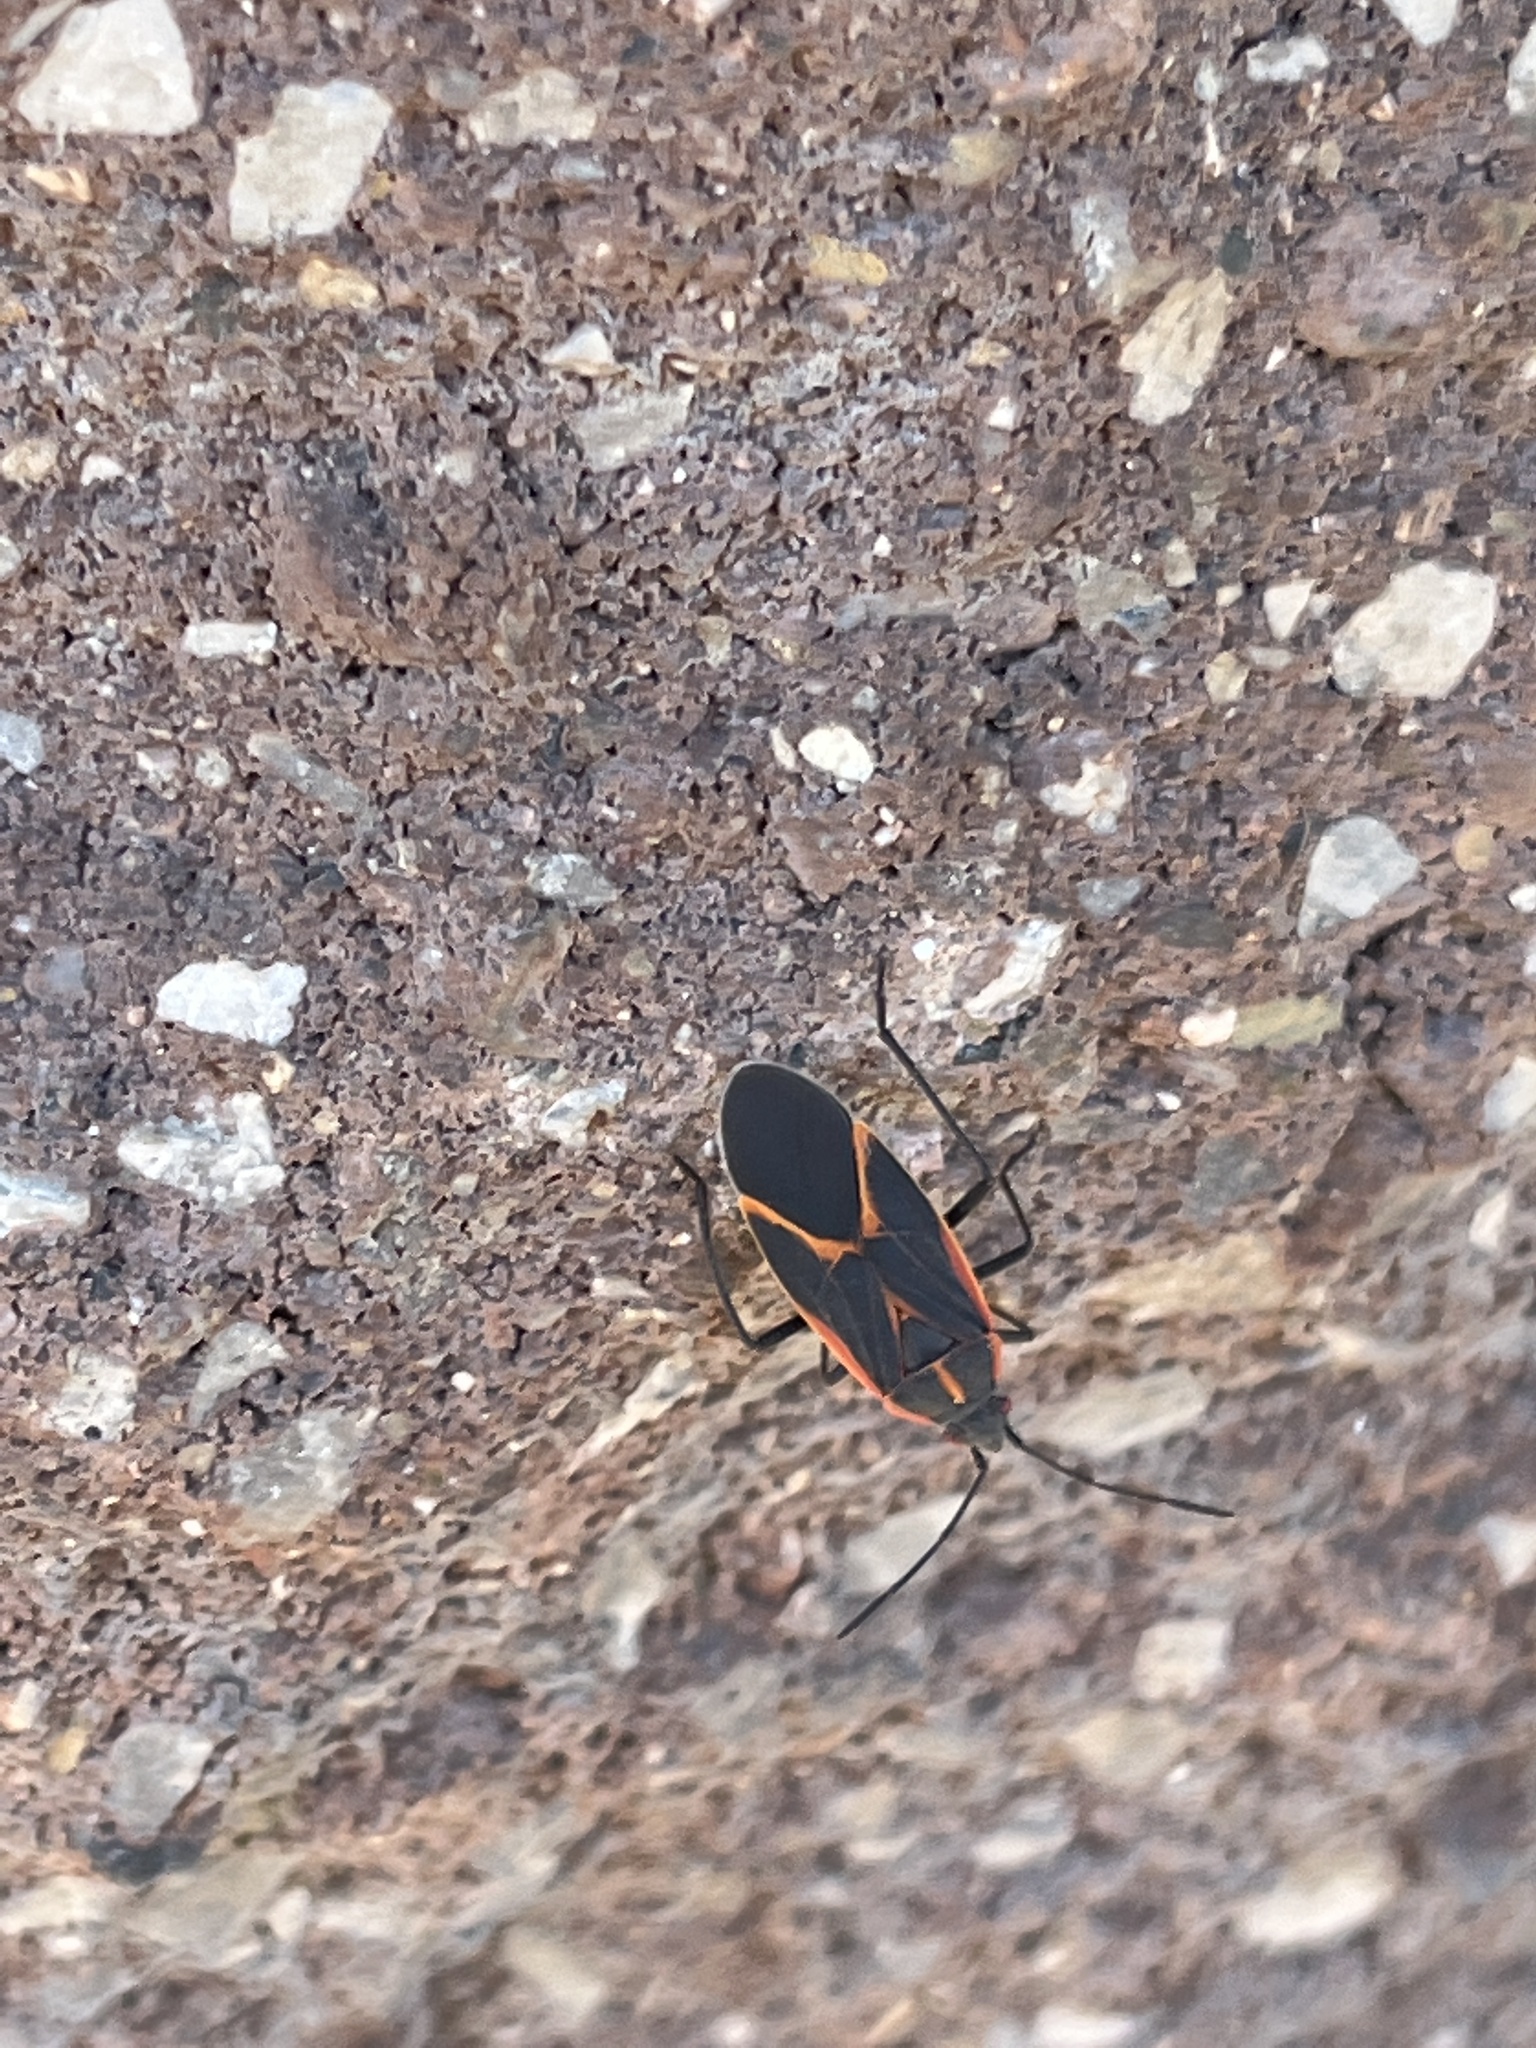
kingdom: Animalia
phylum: Arthropoda
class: Insecta
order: Hemiptera
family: Rhopalidae
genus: Boisea
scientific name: Boisea trivittata
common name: Boxelder bug
